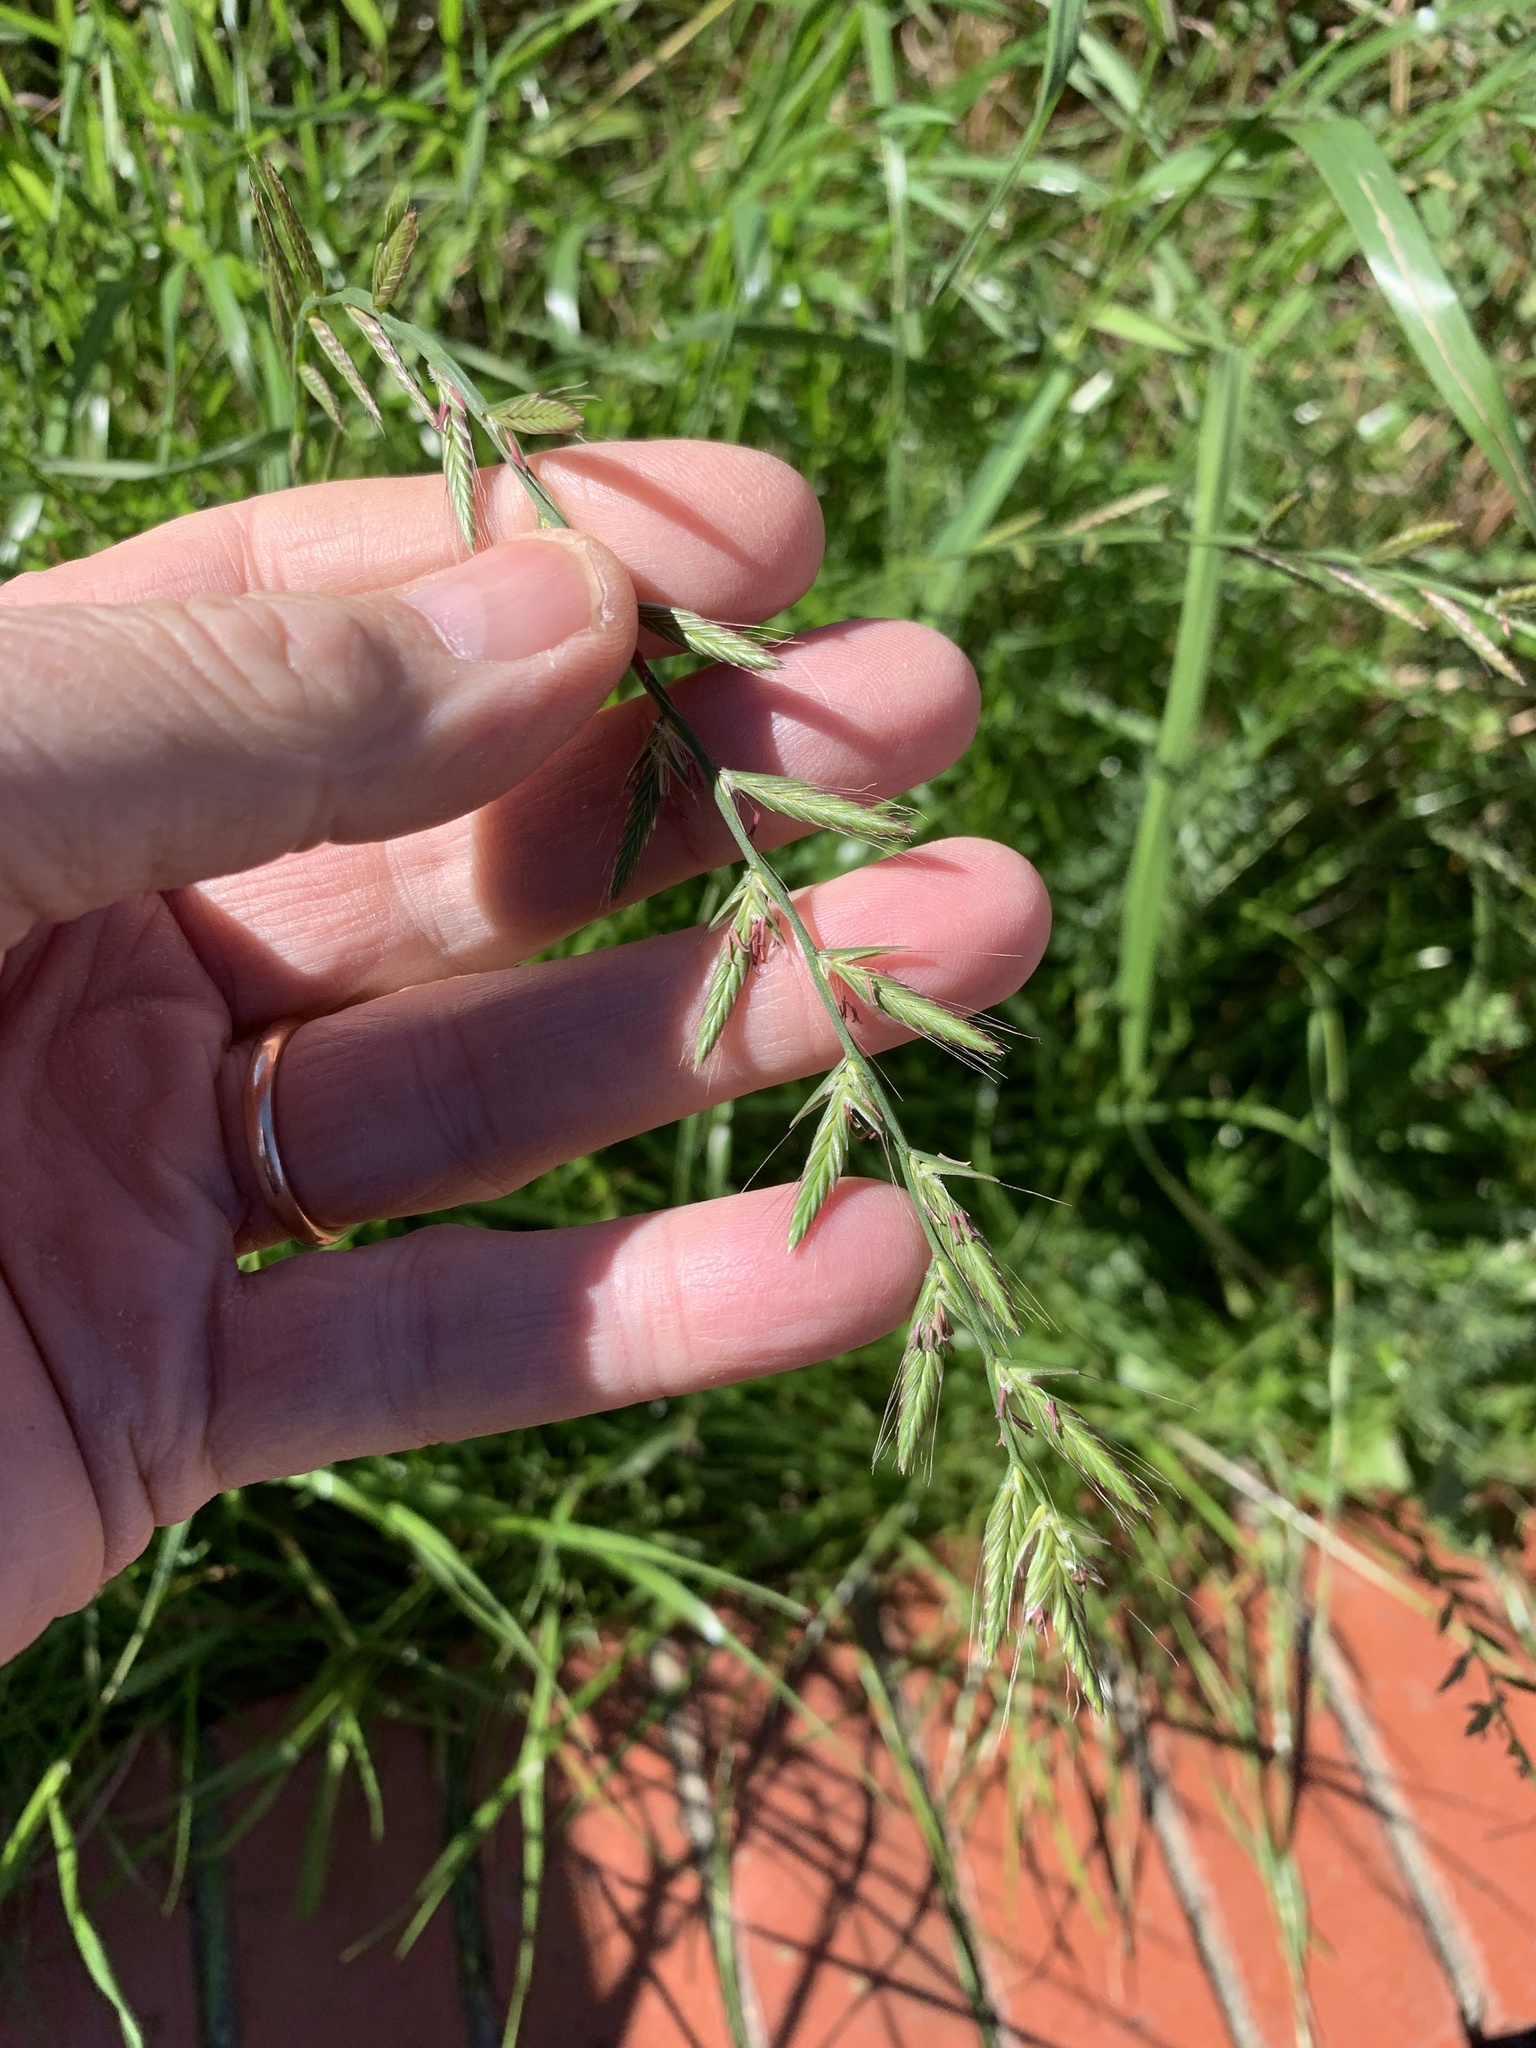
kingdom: Plantae
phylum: Tracheophyta
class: Liliopsida
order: Poales
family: Poaceae
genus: Lolium
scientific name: Lolium multiflorum
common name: Annual ryegrass
